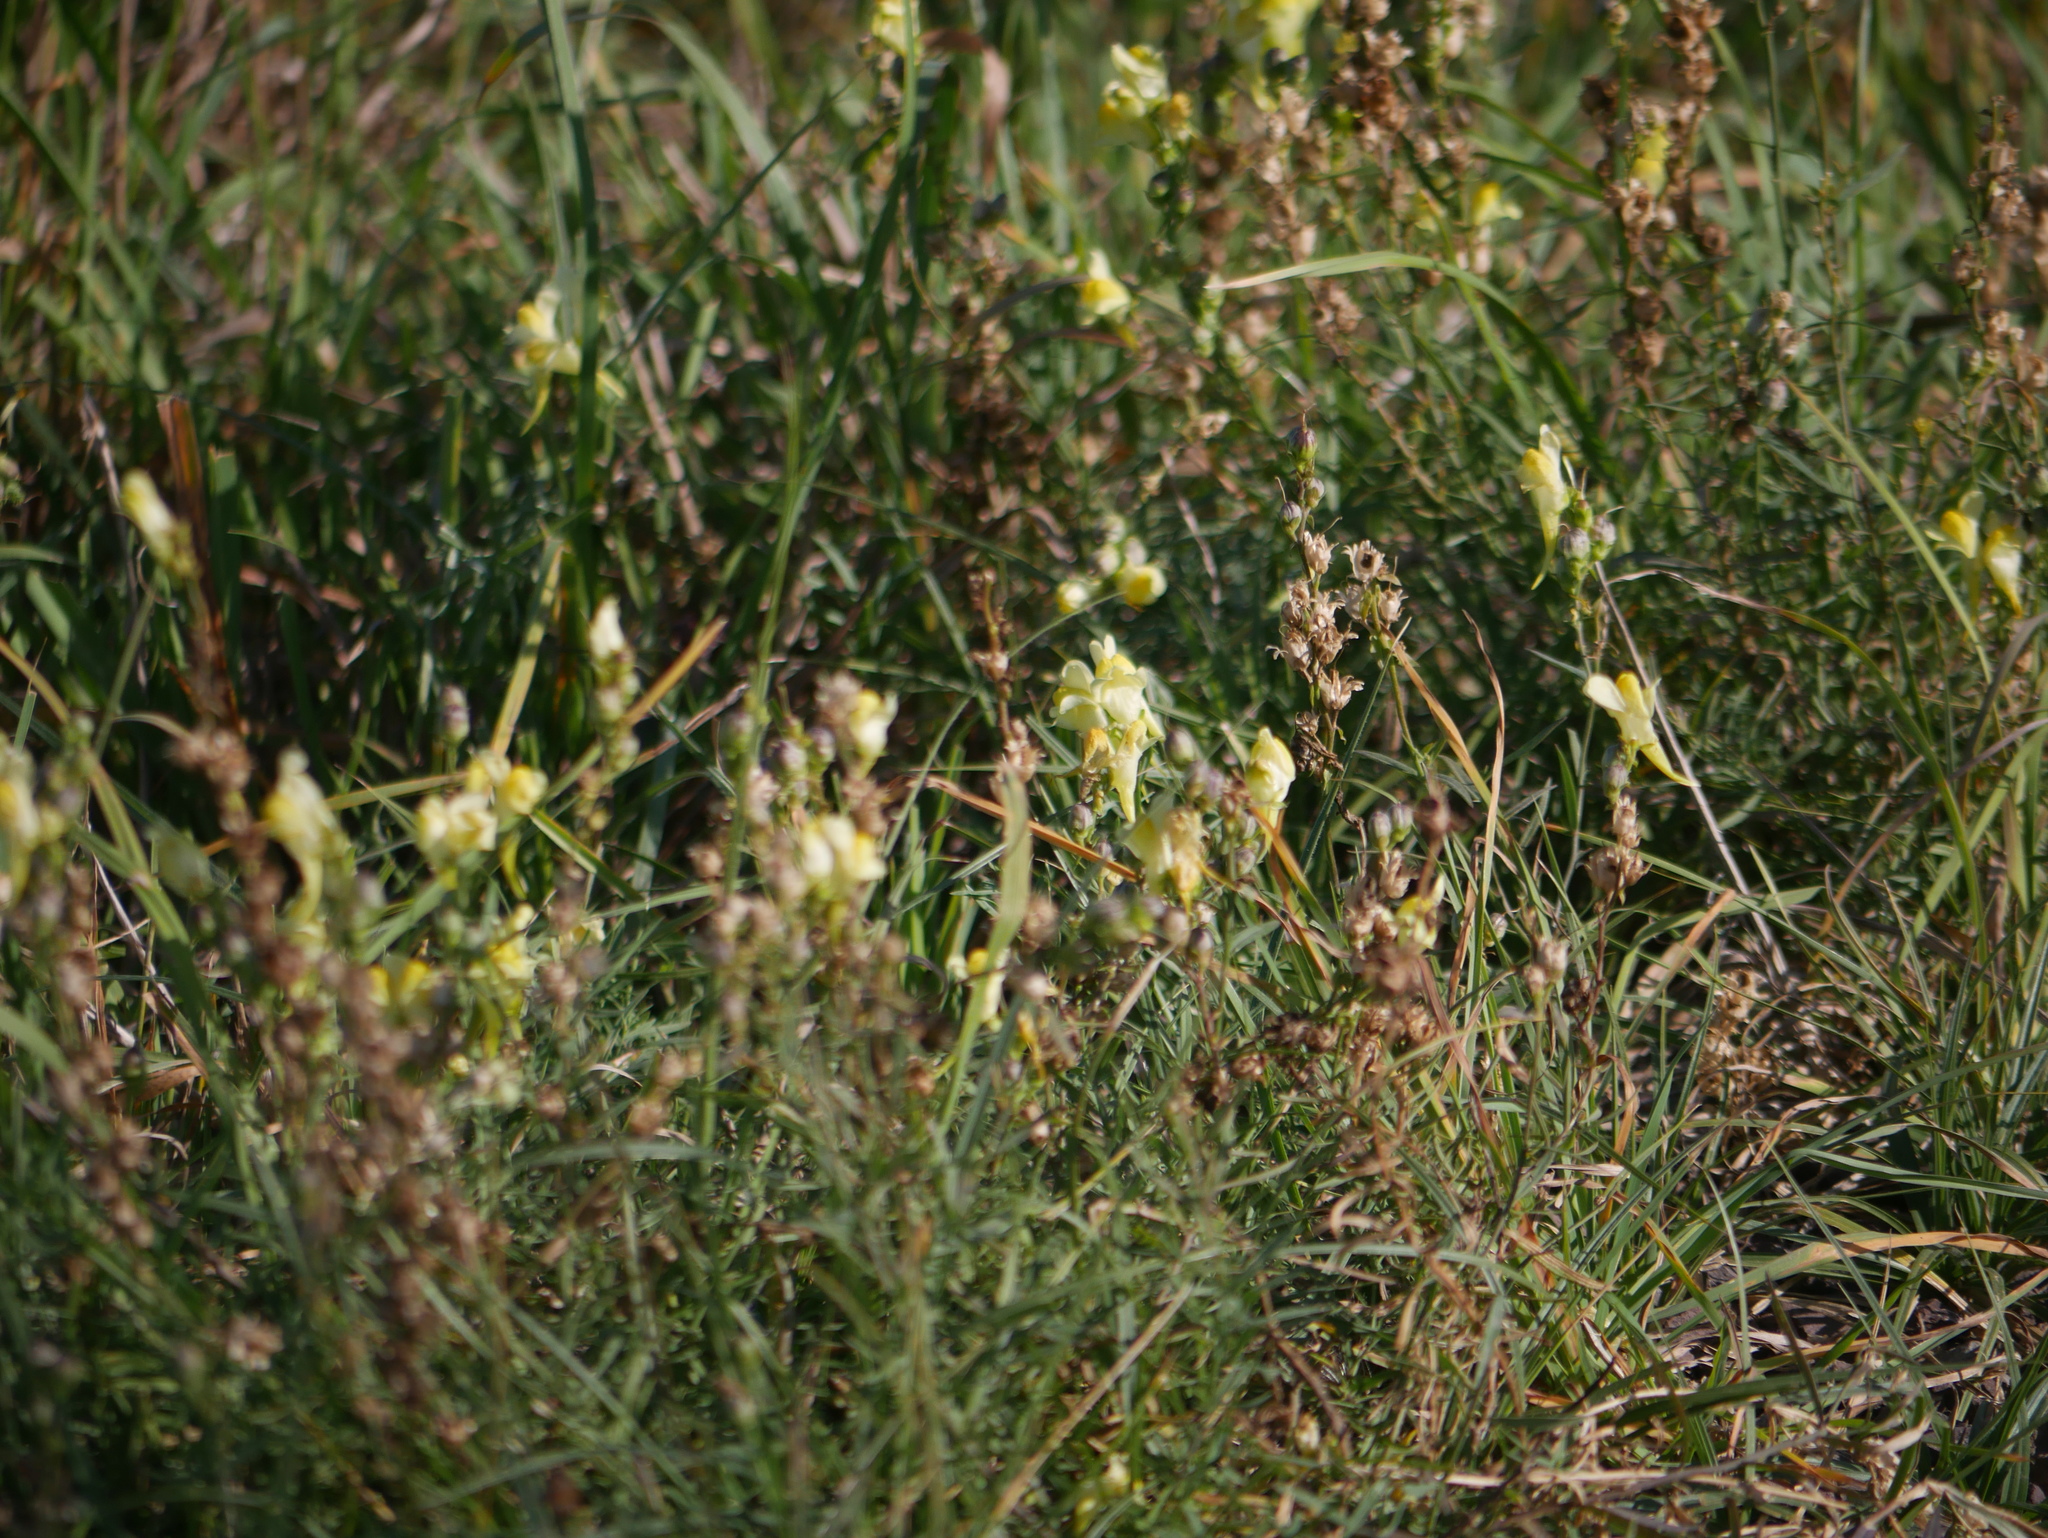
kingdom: Plantae
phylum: Tracheophyta
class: Magnoliopsida
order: Lamiales
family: Plantaginaceae
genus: Linaria
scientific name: Linaria vulgaris
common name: Butter and eggs
